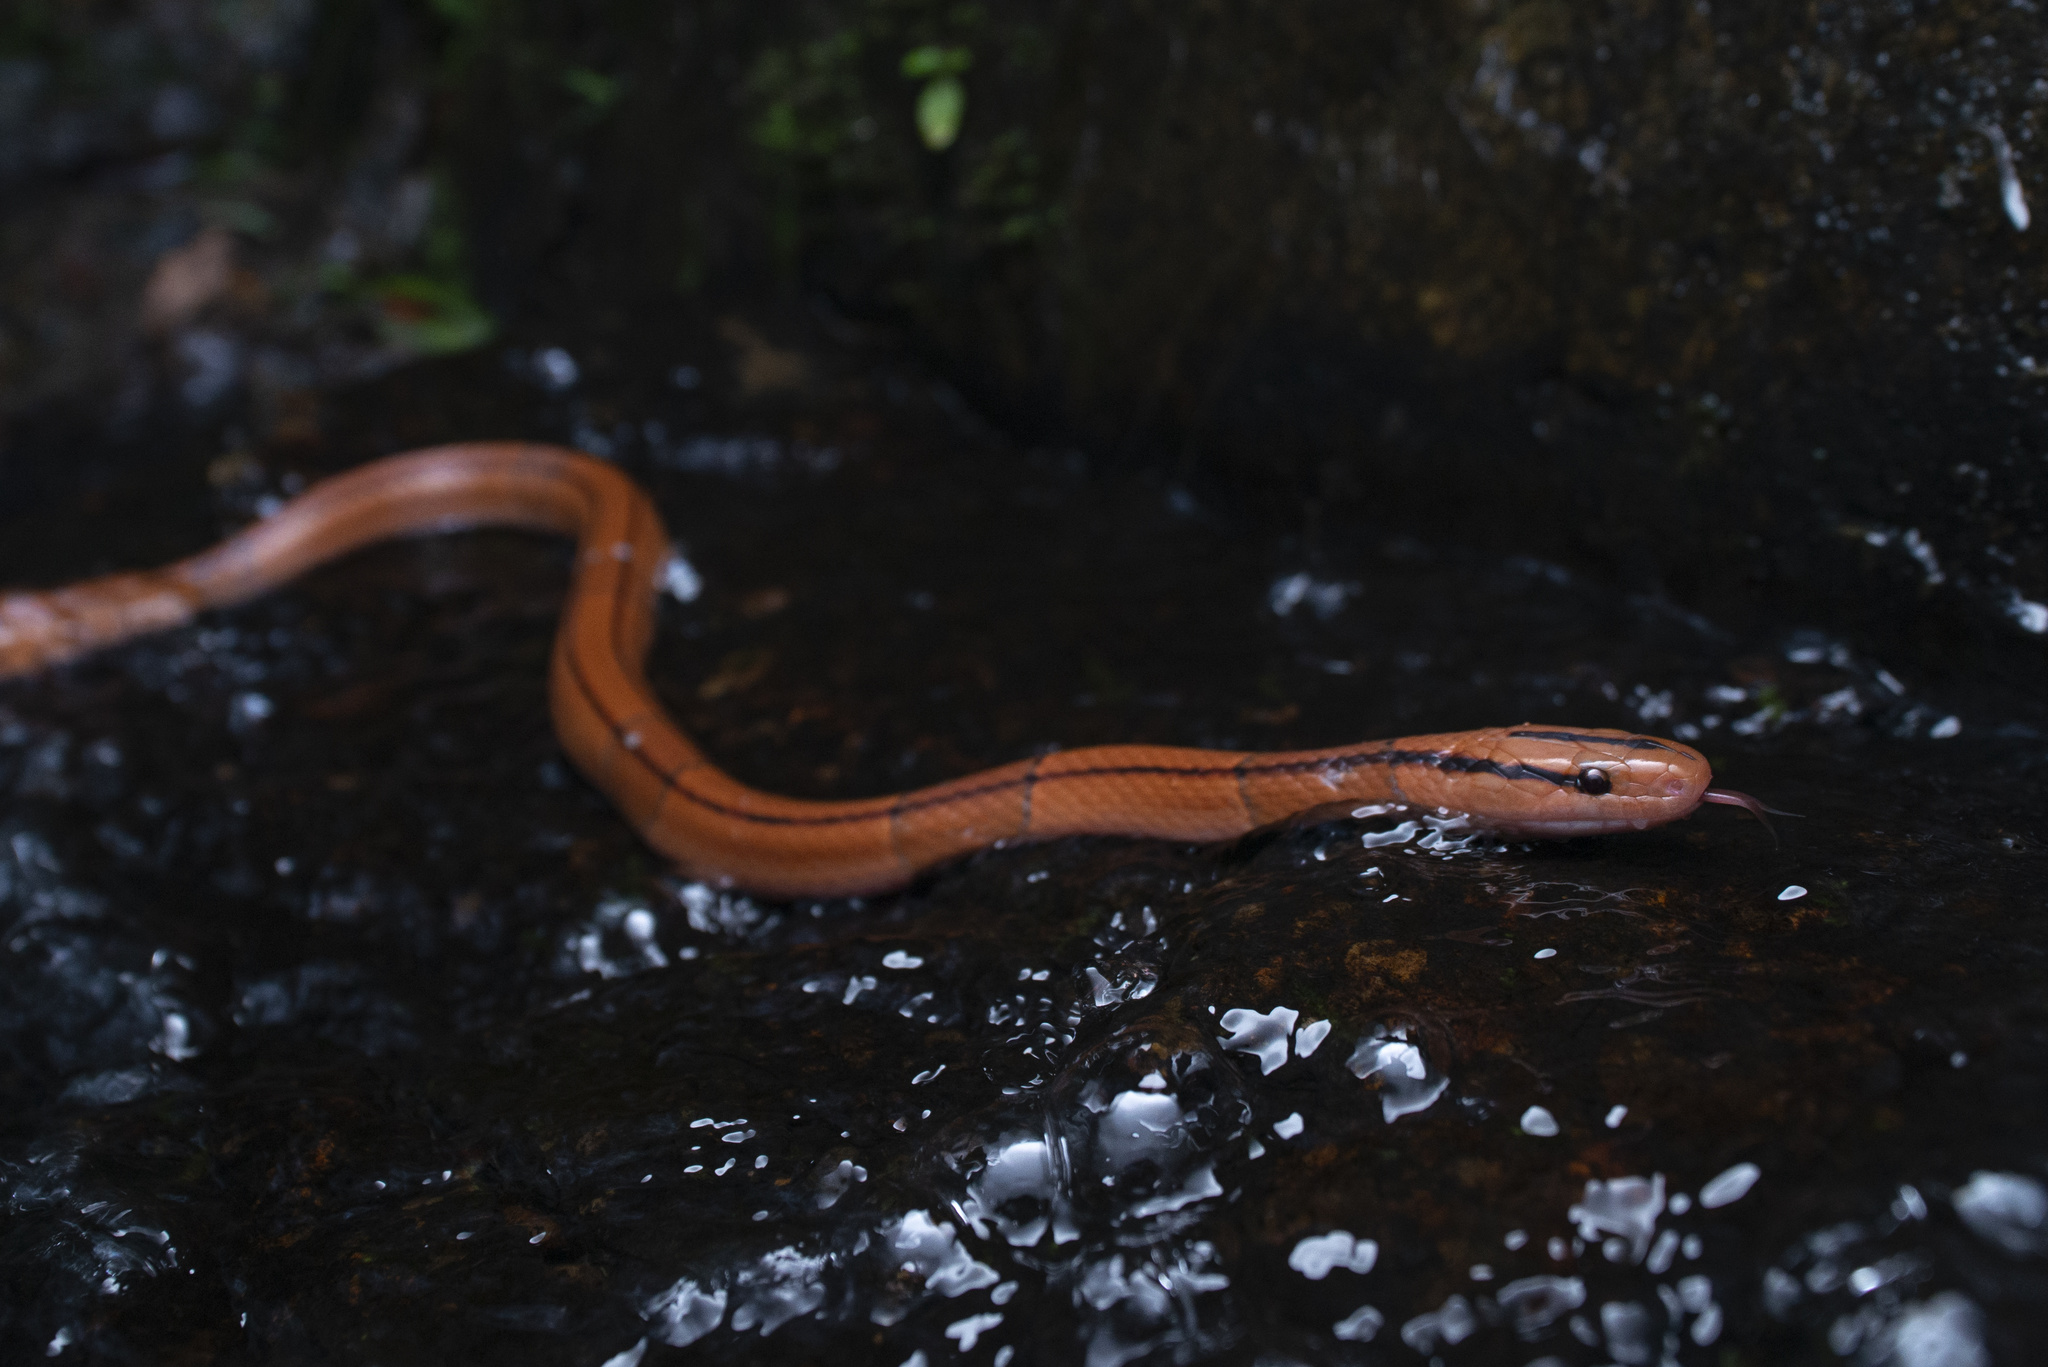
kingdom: Animalia
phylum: Chordata
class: Squamata
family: Colubridae
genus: Oreocryptophis
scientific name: Oreocryptophis porphyraceus
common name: Black-banded trinket snake
